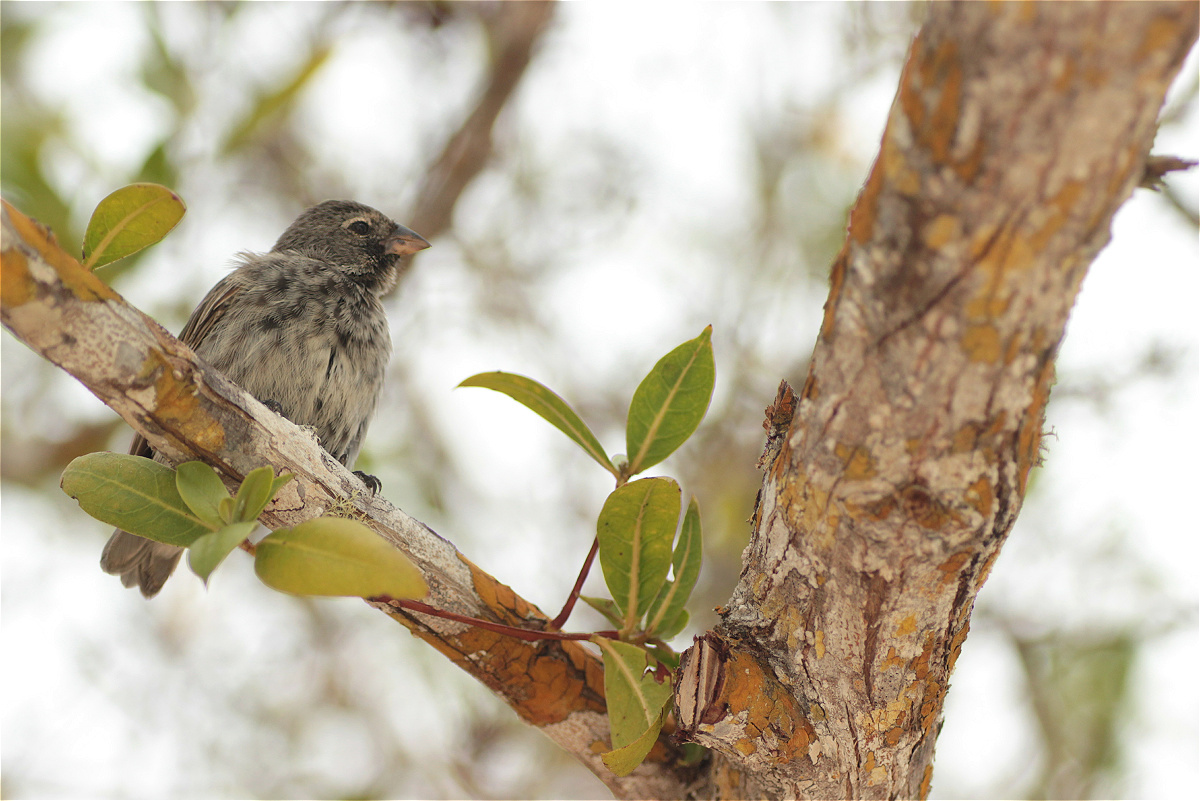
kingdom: Animalia
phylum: Chordata
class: Aves
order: Passeriformes
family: Thraupidae
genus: Geospiza
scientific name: Geospiza fuliginosa
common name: Small ground finch
